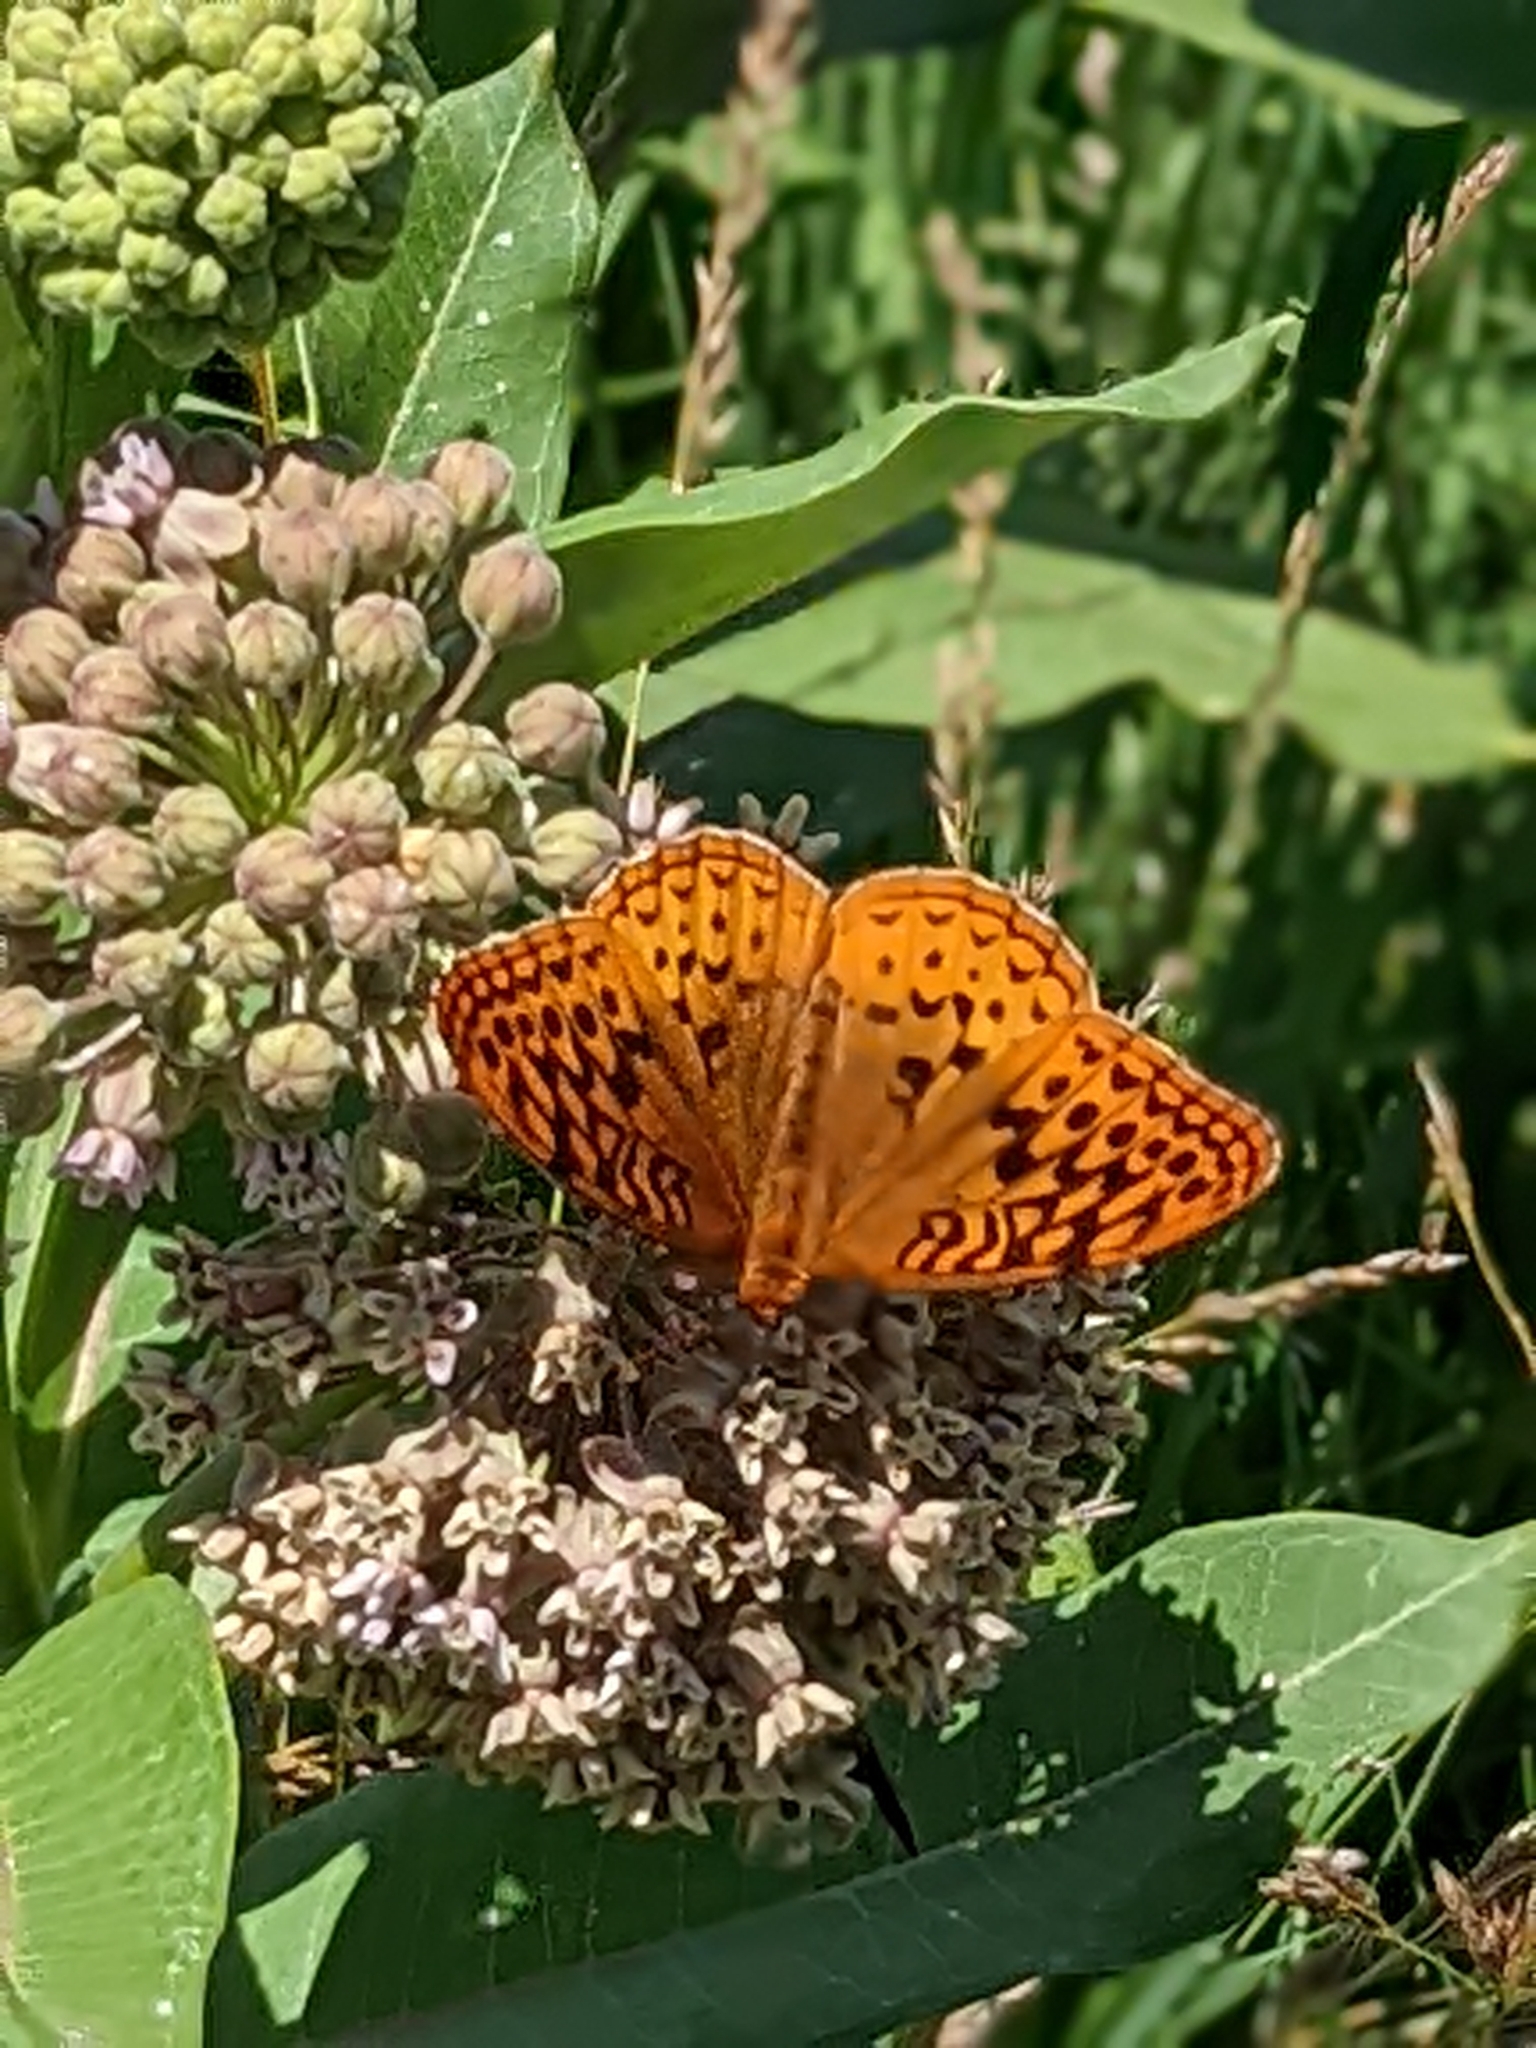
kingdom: Animalia
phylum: Arthropoda
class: Insecta
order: Lepidoptera
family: Nymphalidae
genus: Speyeria
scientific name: Speyeria cybele
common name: Great spangled fritillary
